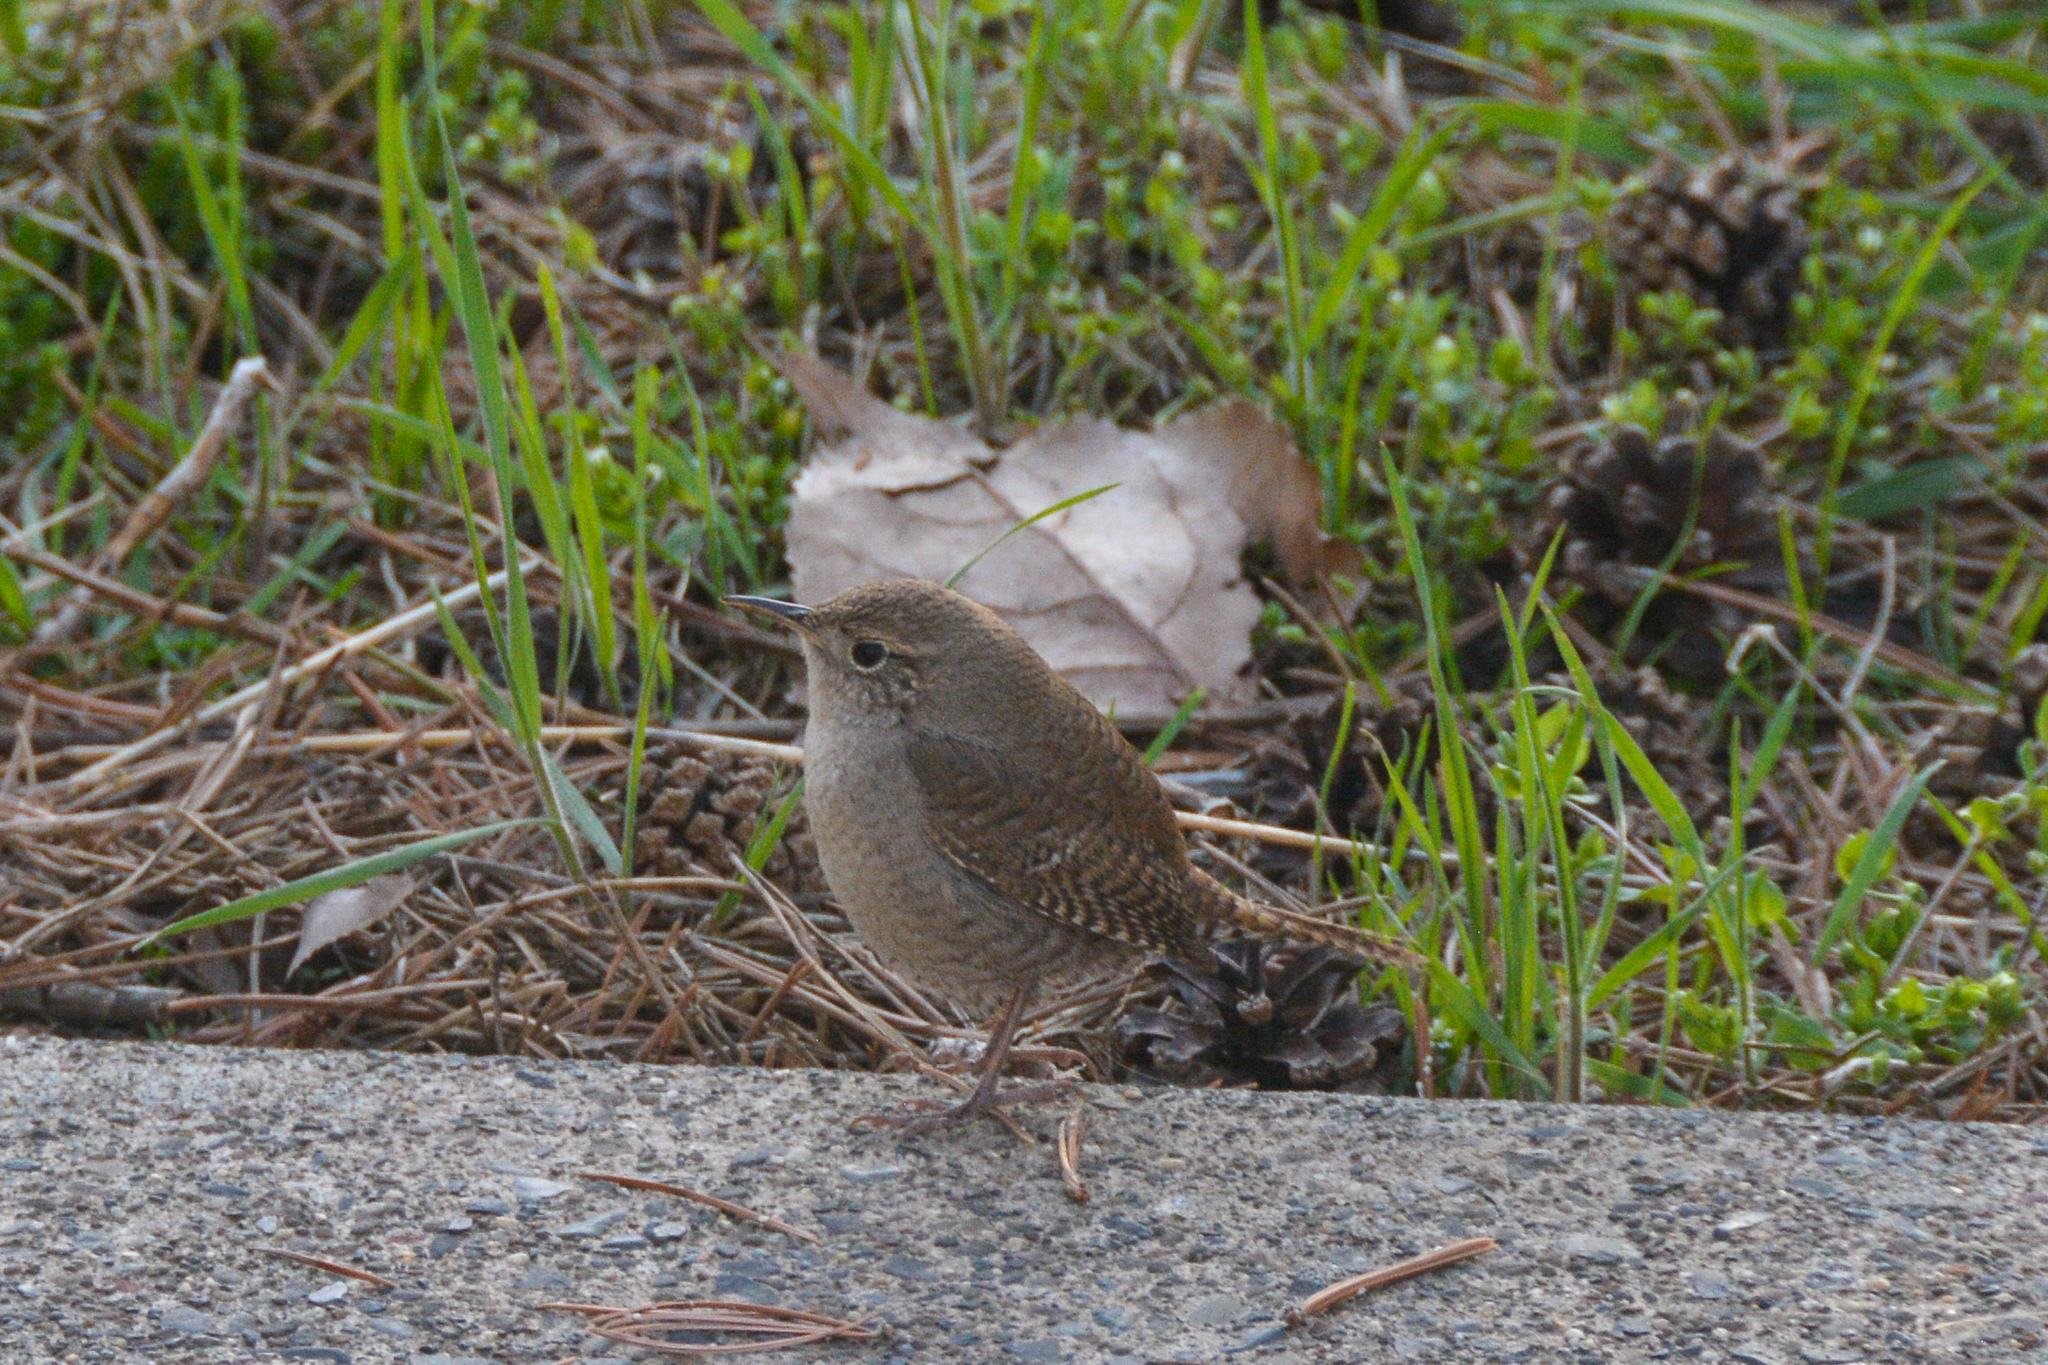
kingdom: Animalia
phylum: Chordata
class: Aves
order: Passeriformes
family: Troglodytidae
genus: Troglodytes
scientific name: Troglodytes aedon
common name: House wren
